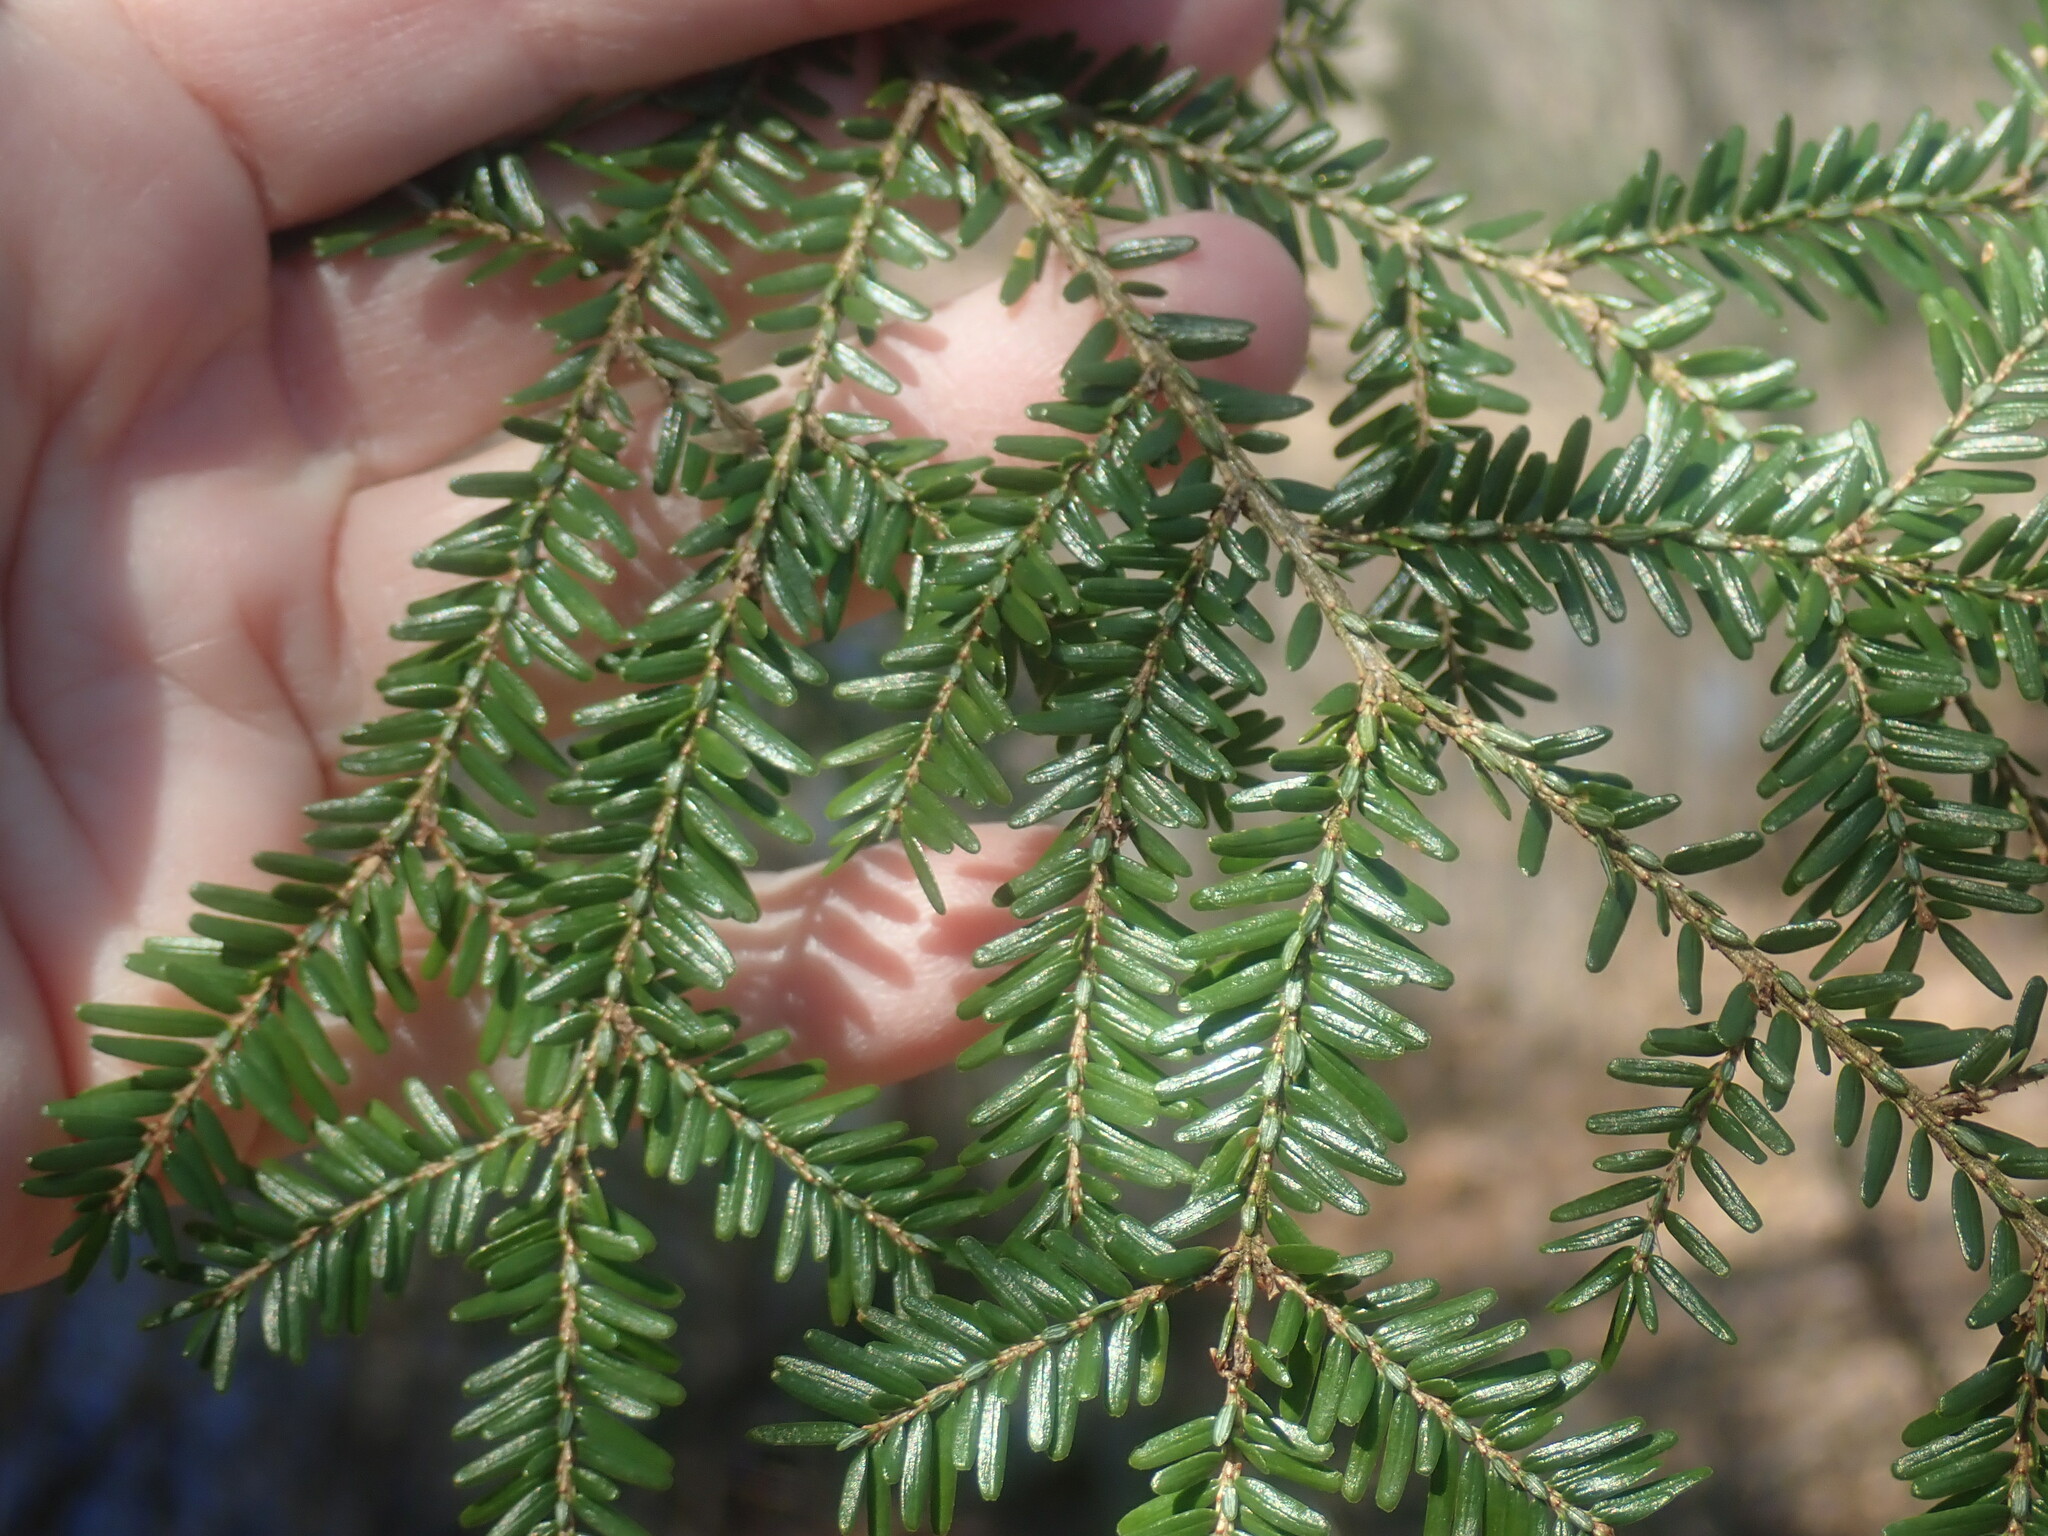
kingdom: Plantae
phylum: Tracheophyta
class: Pinopsida
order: Pinales
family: Pinaceae
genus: Tsuga
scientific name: Tsuga canadensis
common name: Eastern hemlock
